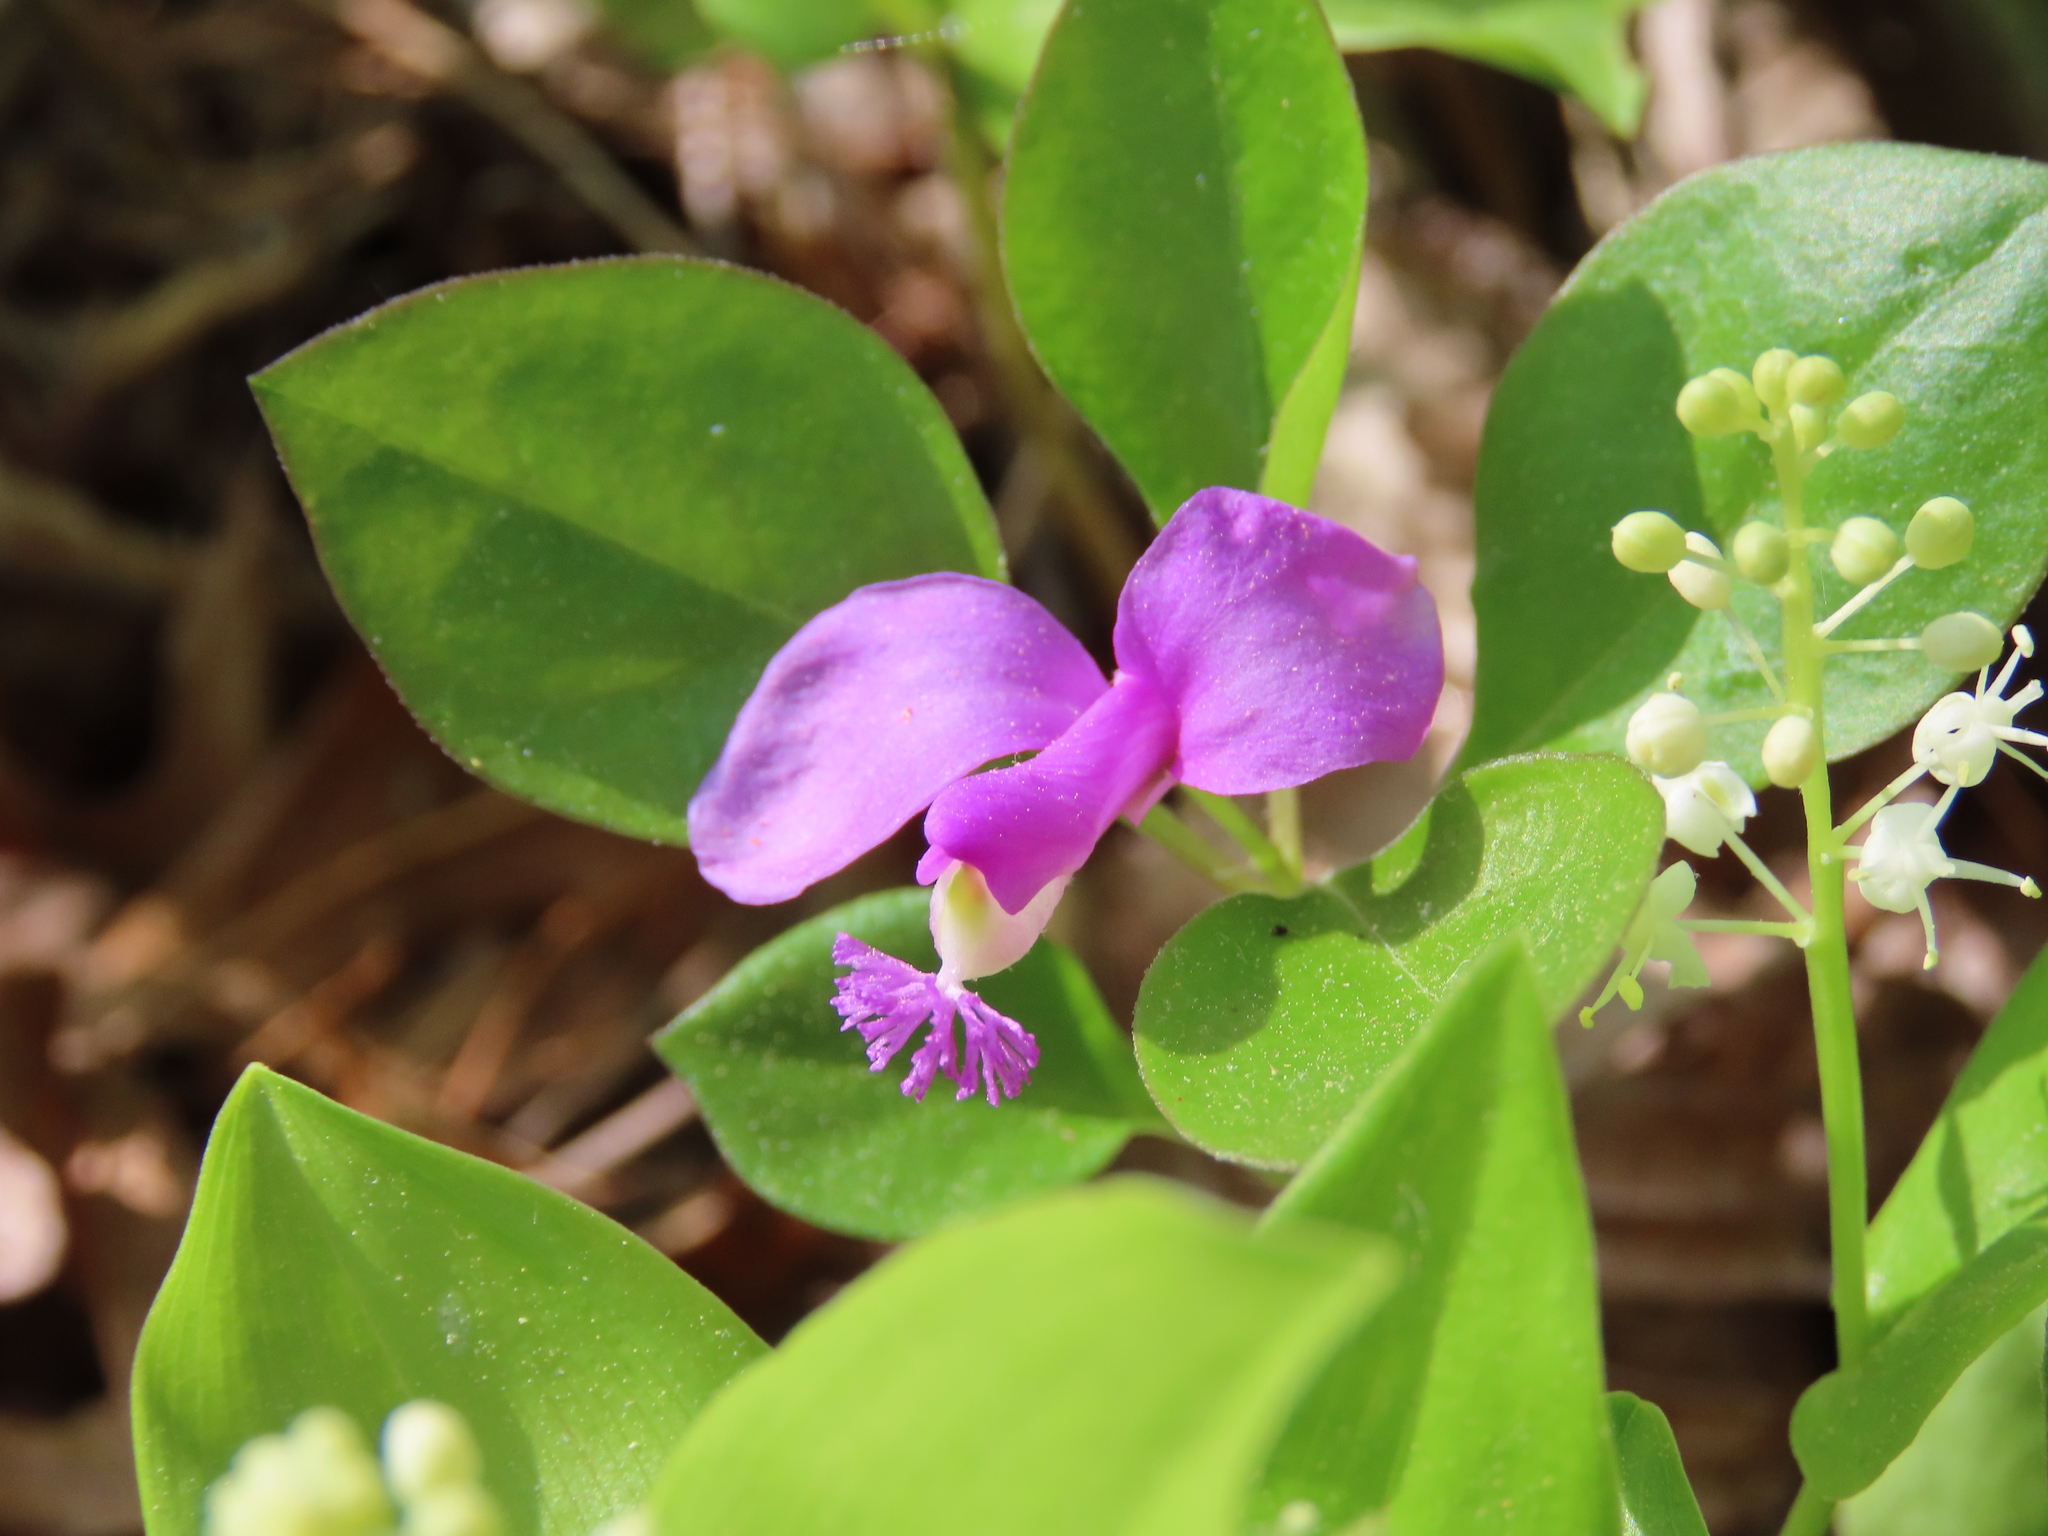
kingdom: Plantae
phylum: Tracheophyta
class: Magnoliopsida
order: Fabales
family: Polygalaceae
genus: Polygaloides
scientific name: Polygaloides paucifolia
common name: Bird-on-the-wing
